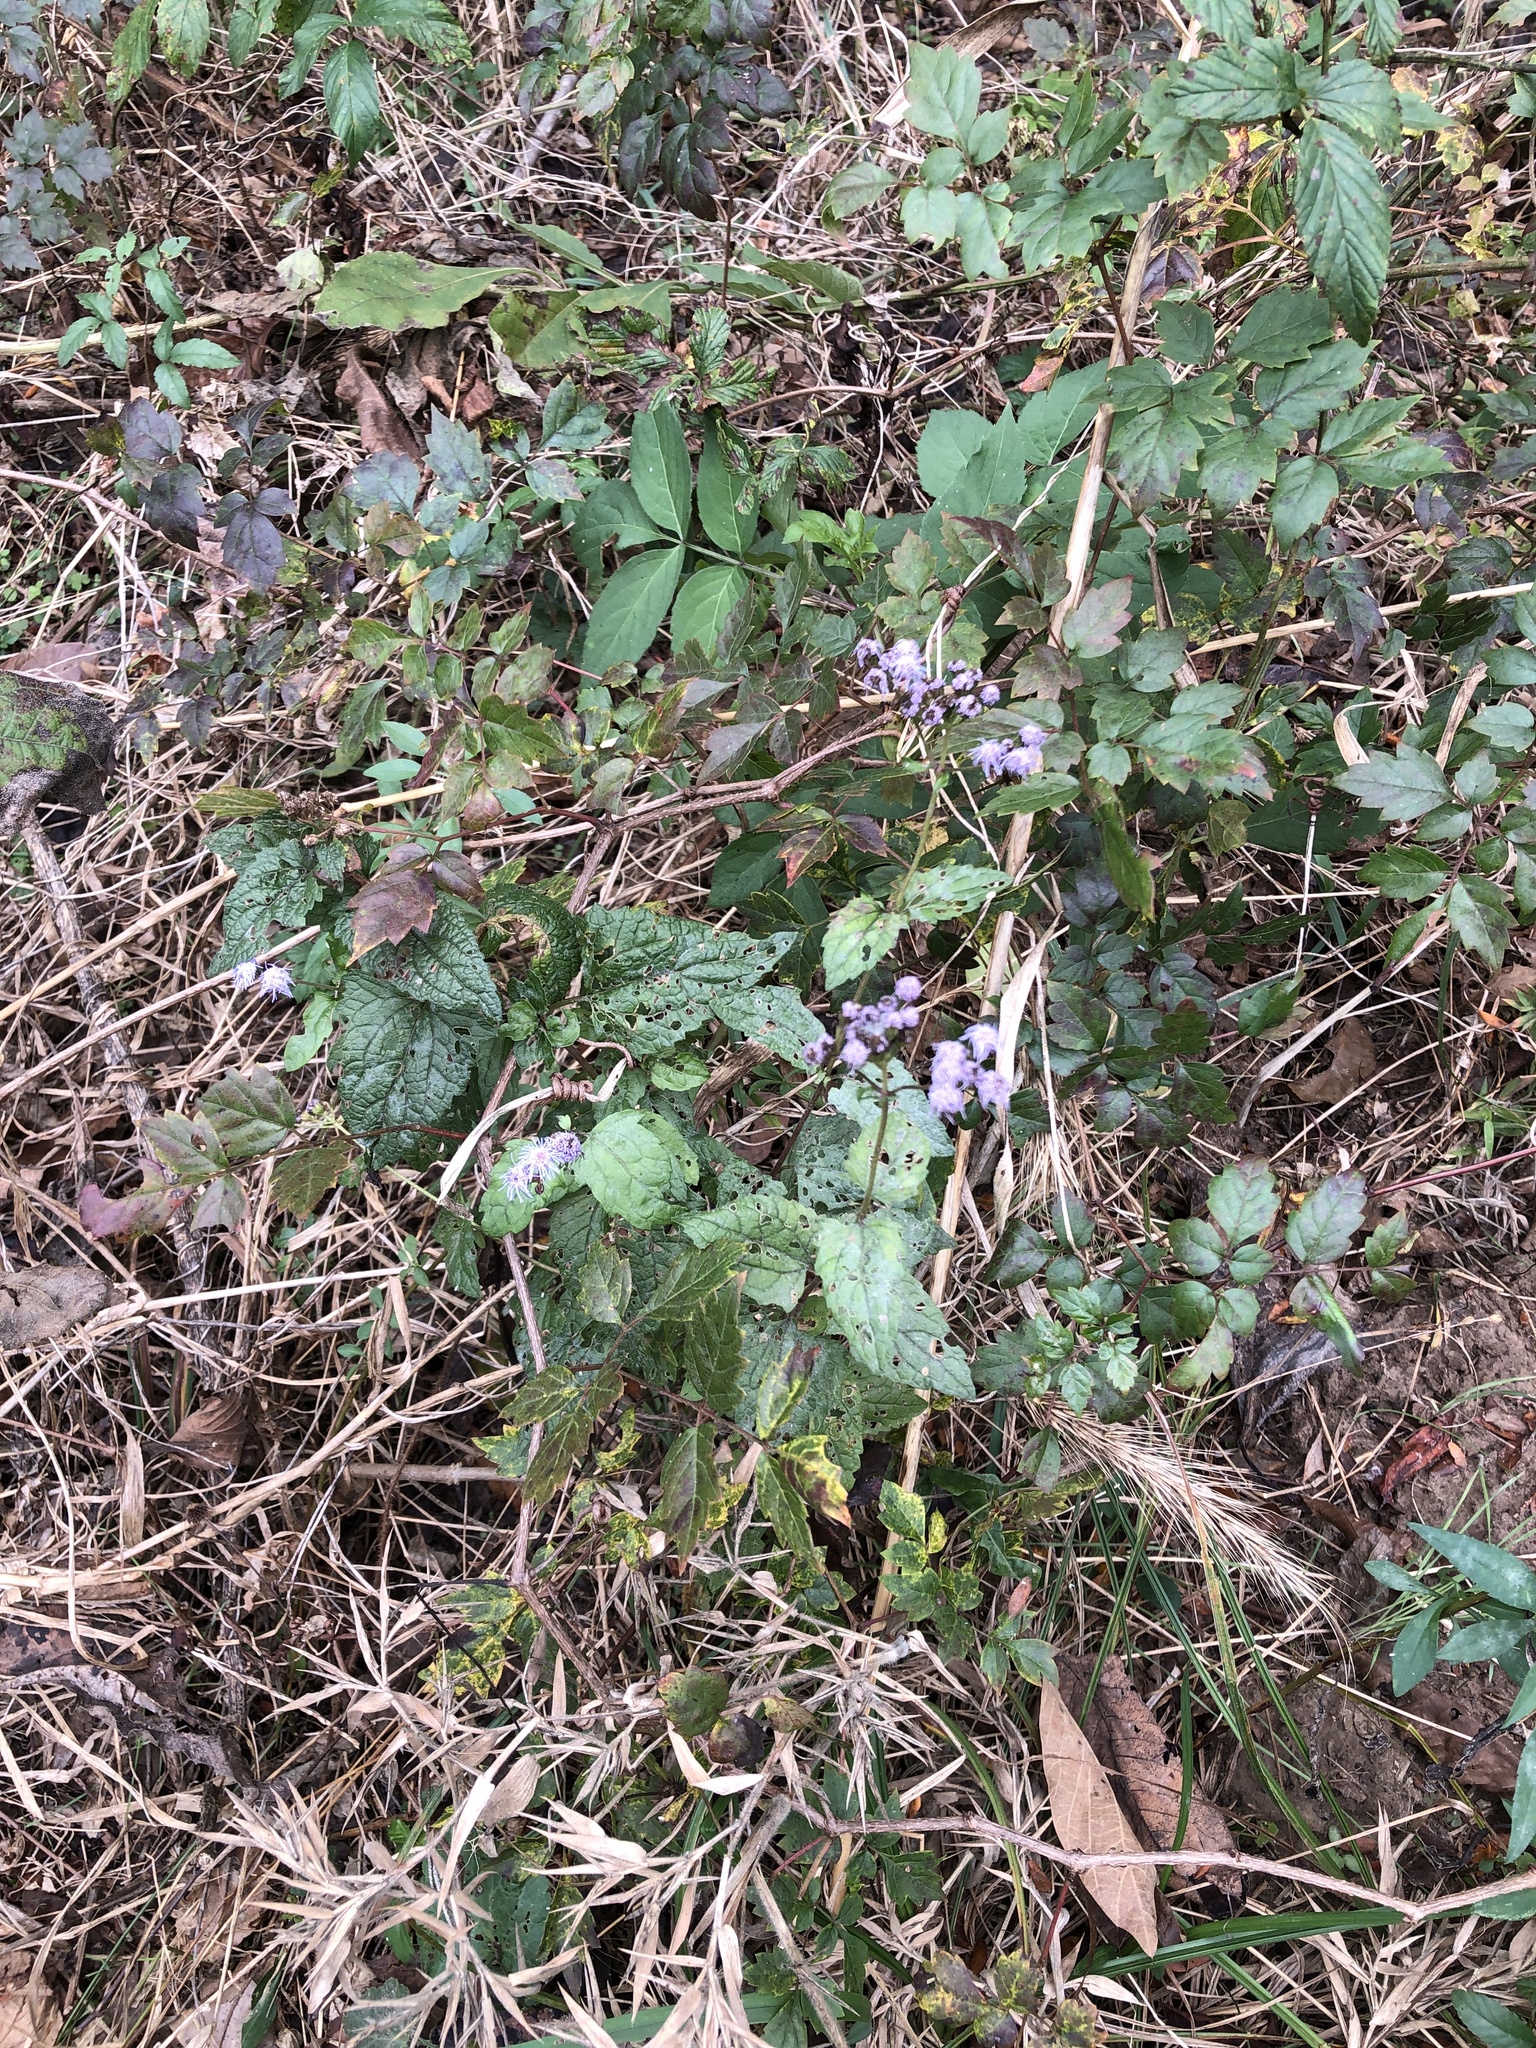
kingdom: Plantae
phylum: Tracheophyta
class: Magnoliopsida
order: Asterales
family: Asteraceae
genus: Conoclinium
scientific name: Conoclinium coelestinum
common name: Blue mistflower
